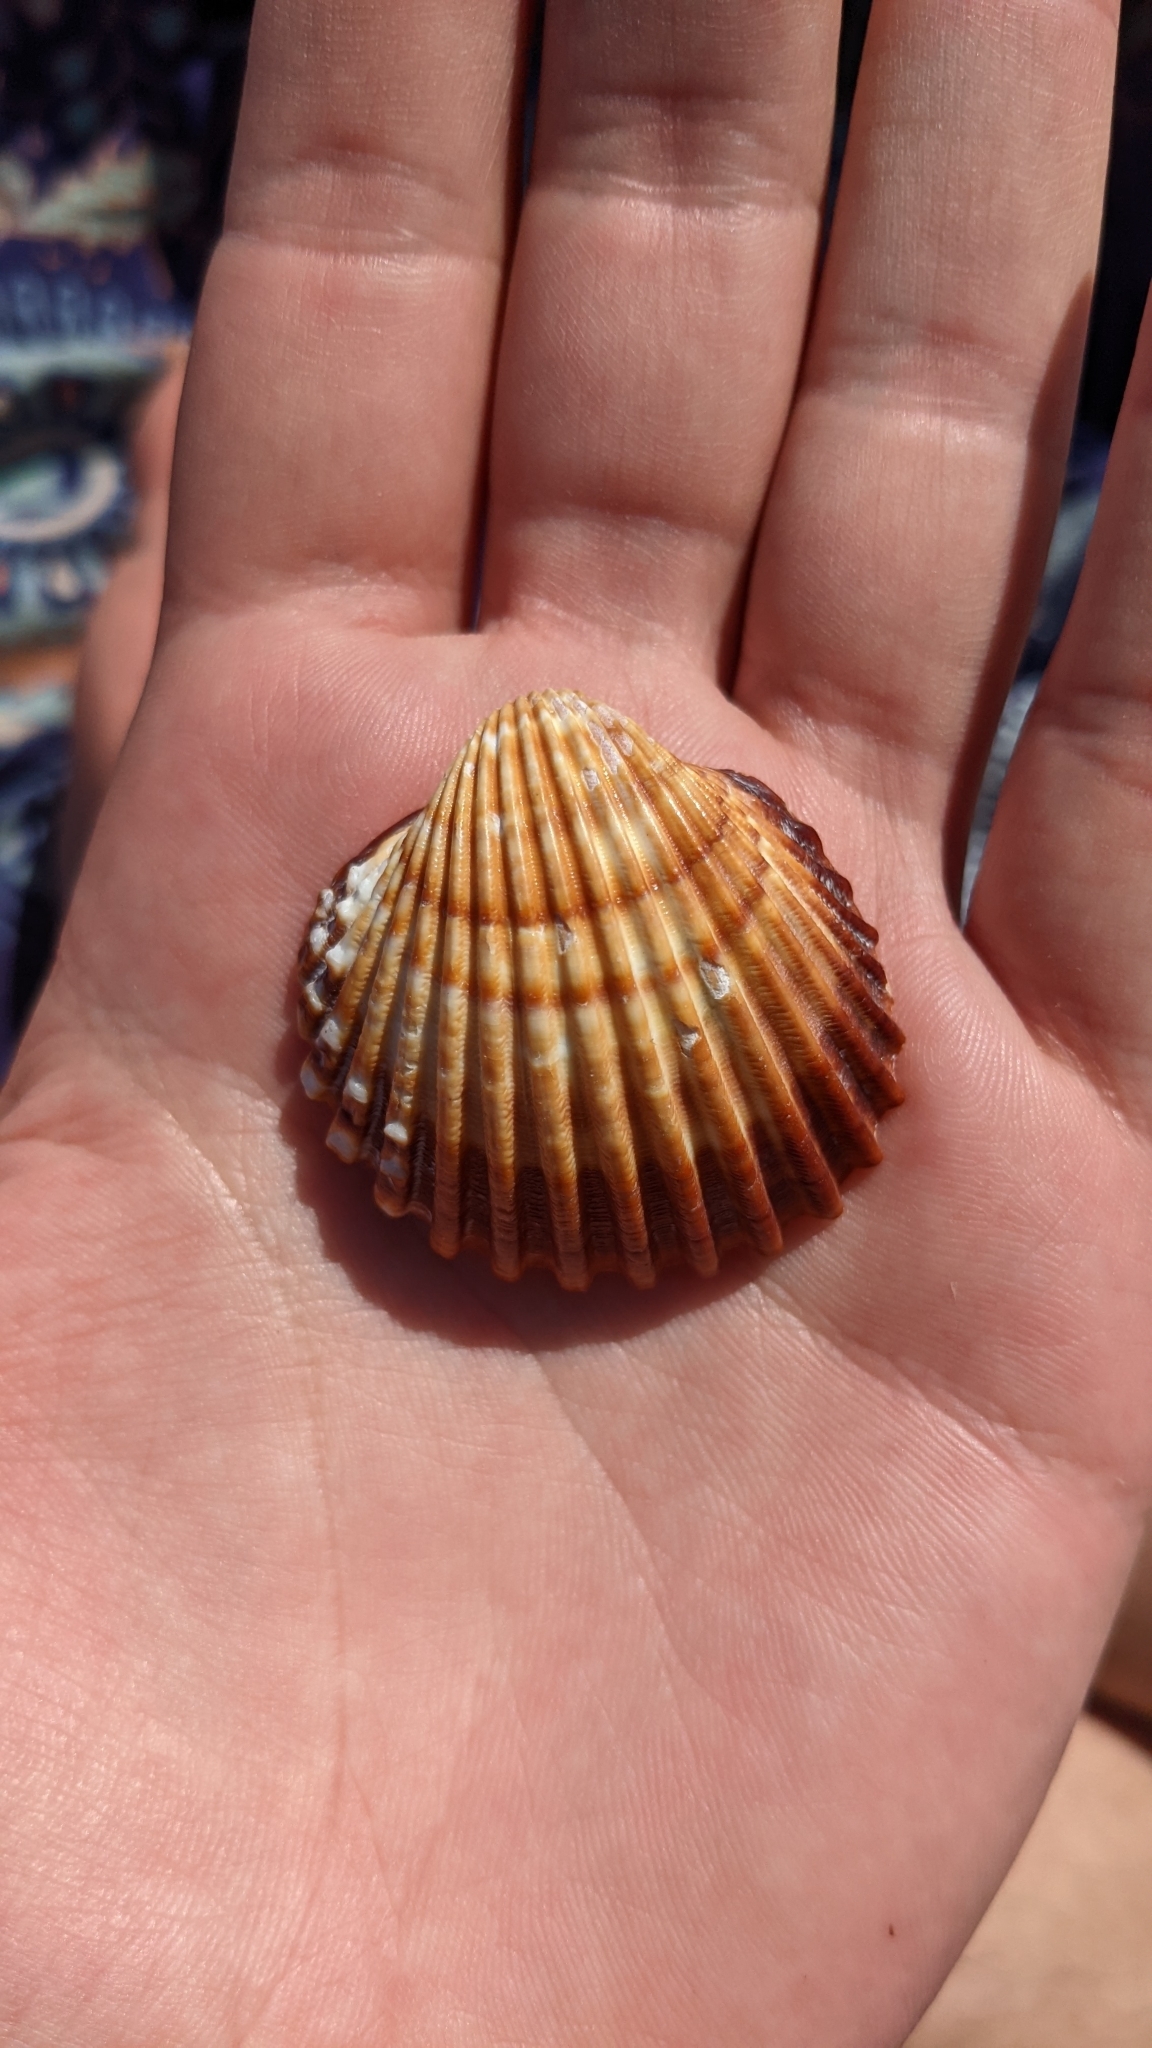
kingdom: Animalia
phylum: Mollusca
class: Bivalvia
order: Cardiida
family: Cardiidae
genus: Acanthocardia
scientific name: Acanthocardia tuberculata
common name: Rough cockle
